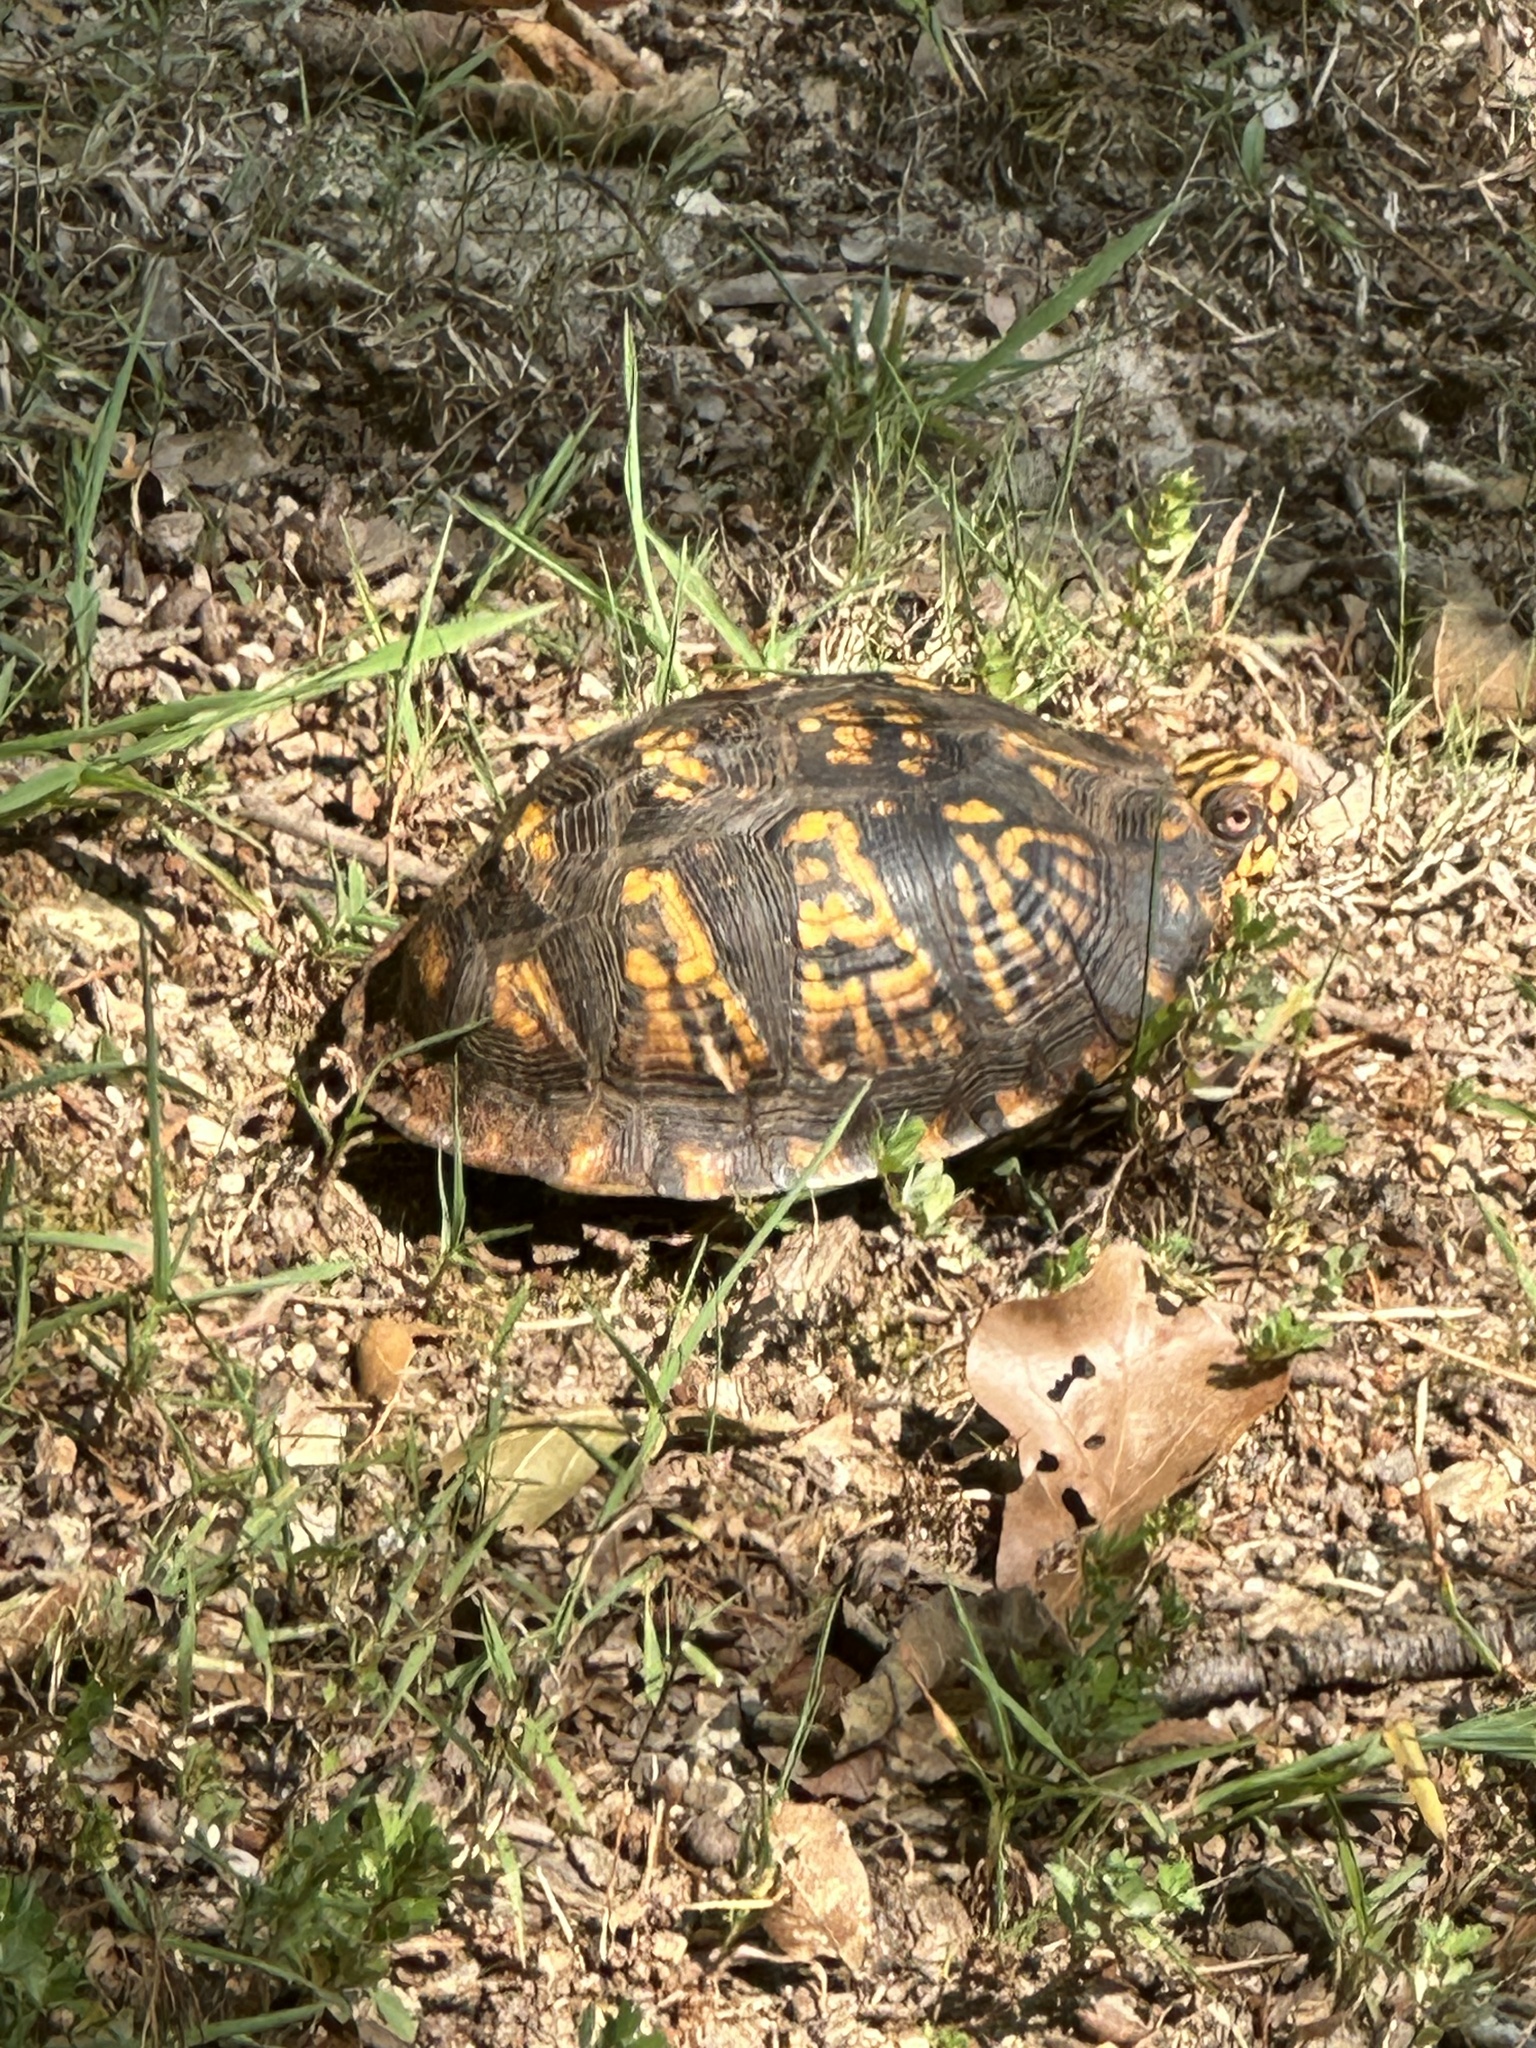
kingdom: Animalia
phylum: Chordata
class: Testudines
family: Emydidae
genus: Terrapene
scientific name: Terrapene carolina
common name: Common box turtle
